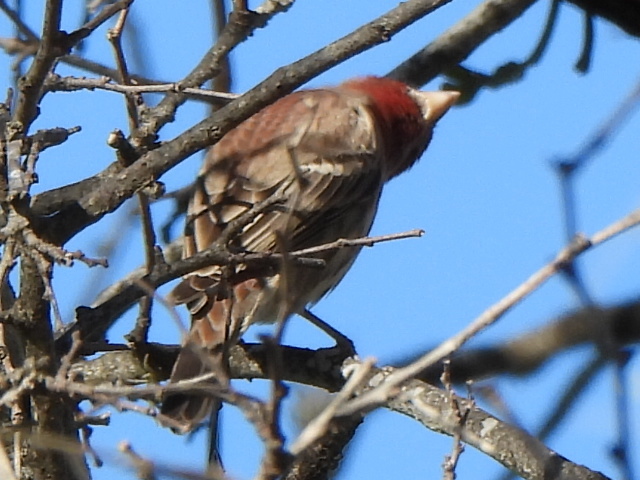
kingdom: Animalia
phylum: Chordata
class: Aves
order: Passeriformes
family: Fringillidae
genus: Haemorhous
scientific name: Haemorhous mexicanus
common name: House finch
